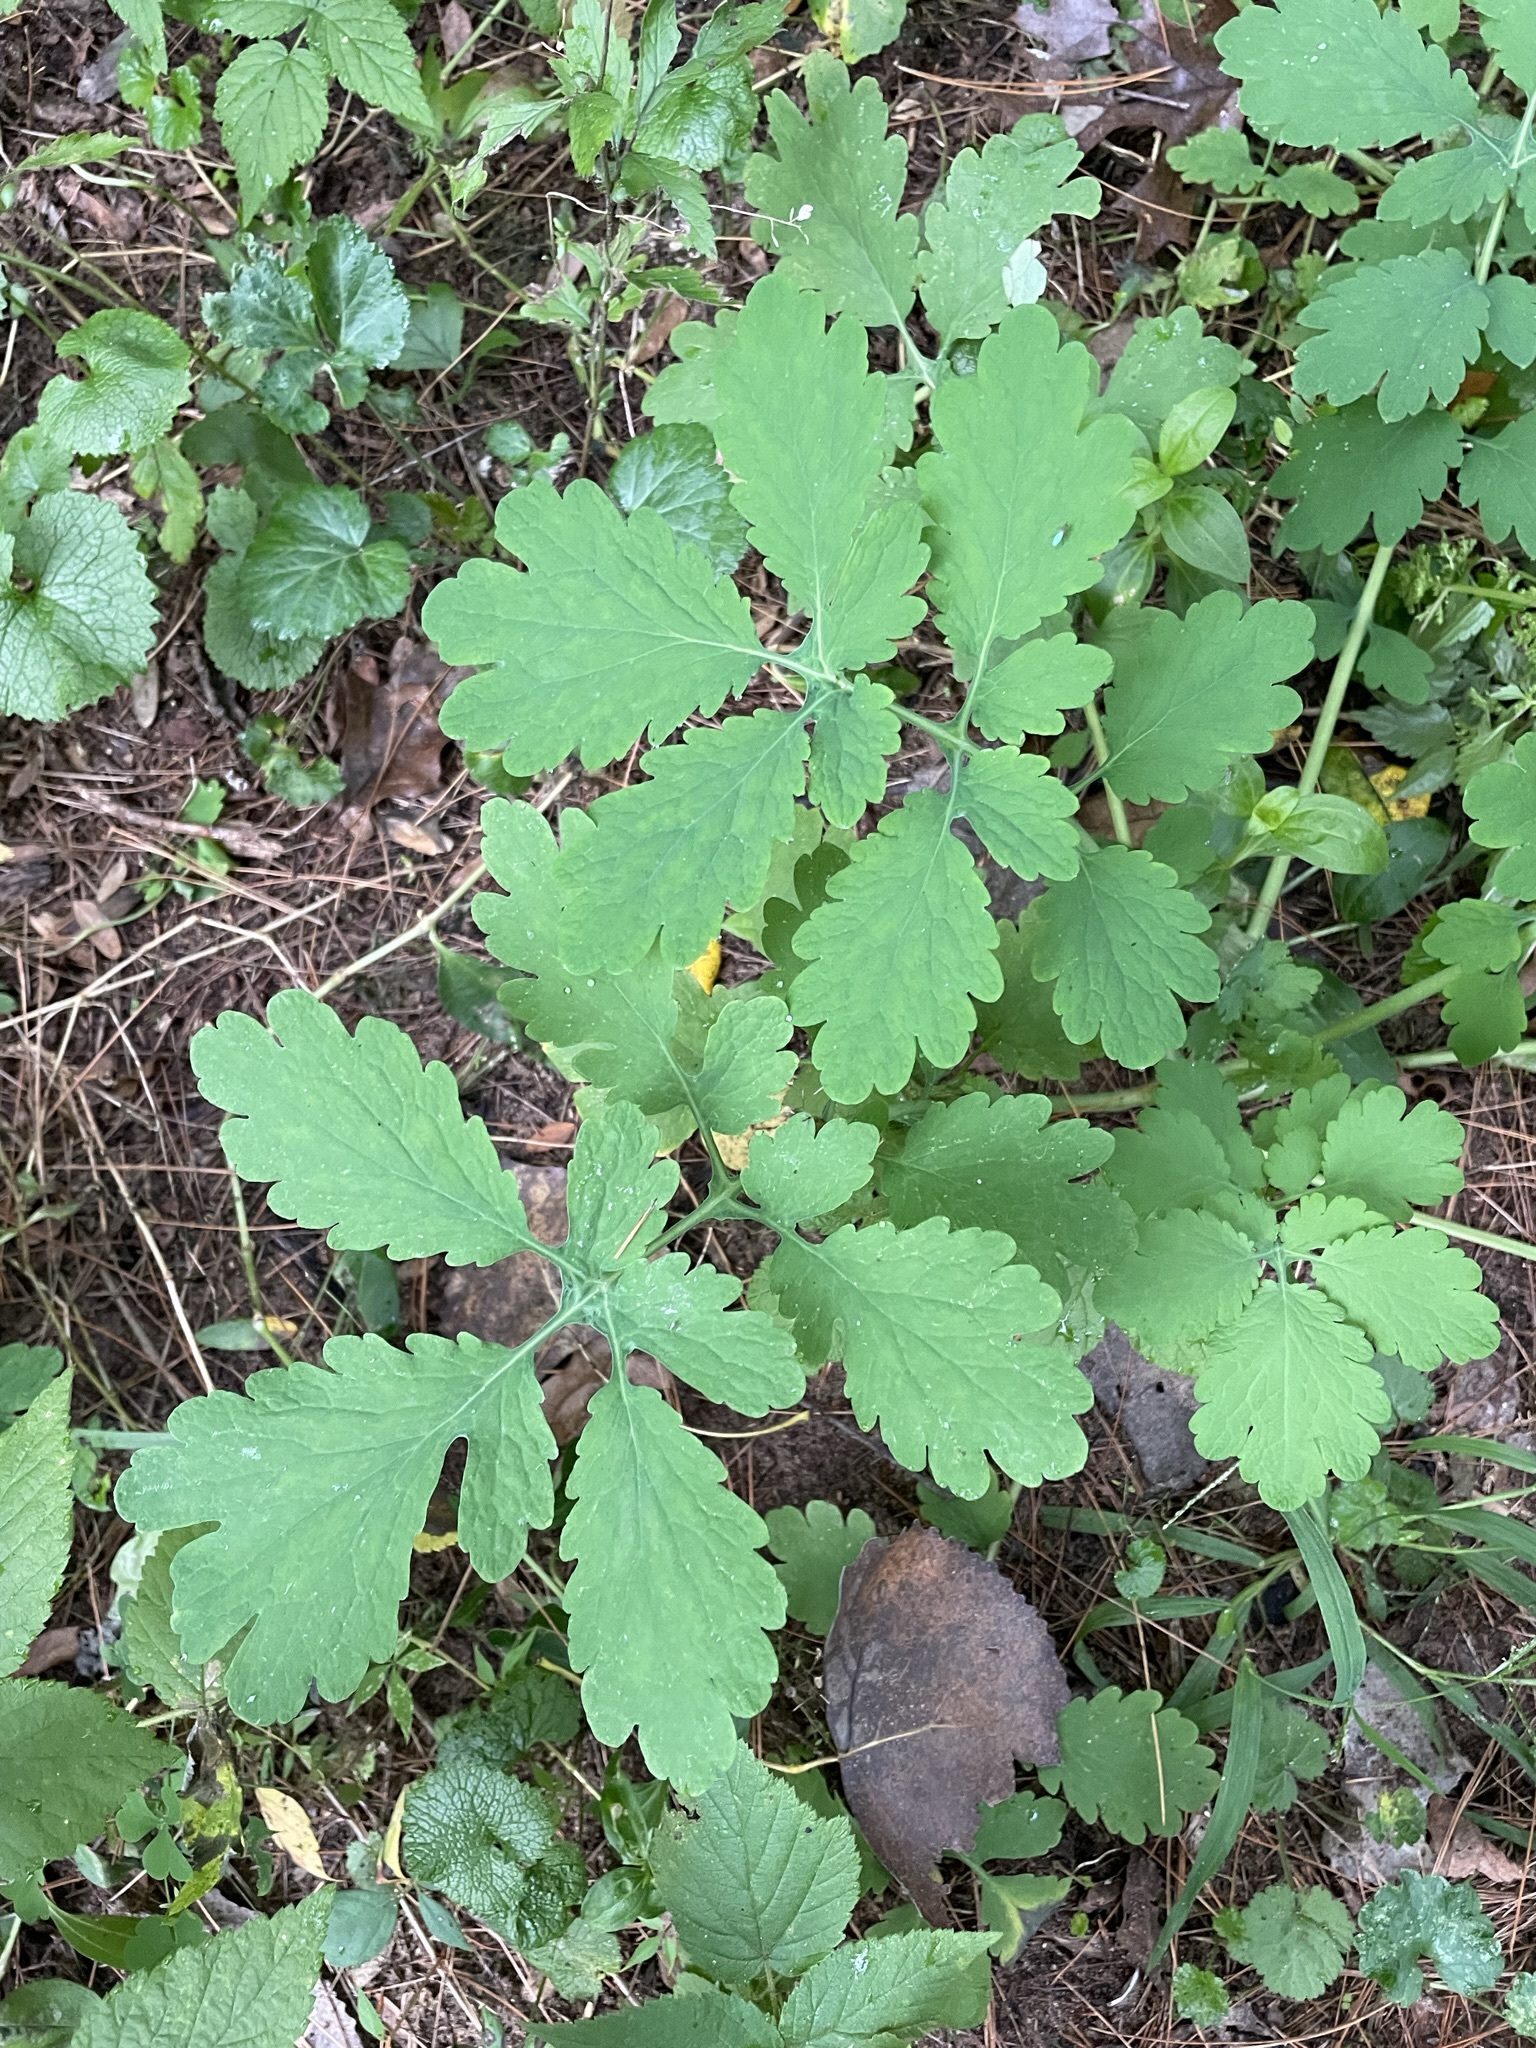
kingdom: Plantae
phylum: Tracheophyta
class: Magnoliopsida
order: Ranunculales
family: Papaveraceae
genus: Chelidonium
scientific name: Chelidonium majus
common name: Greater celandine
